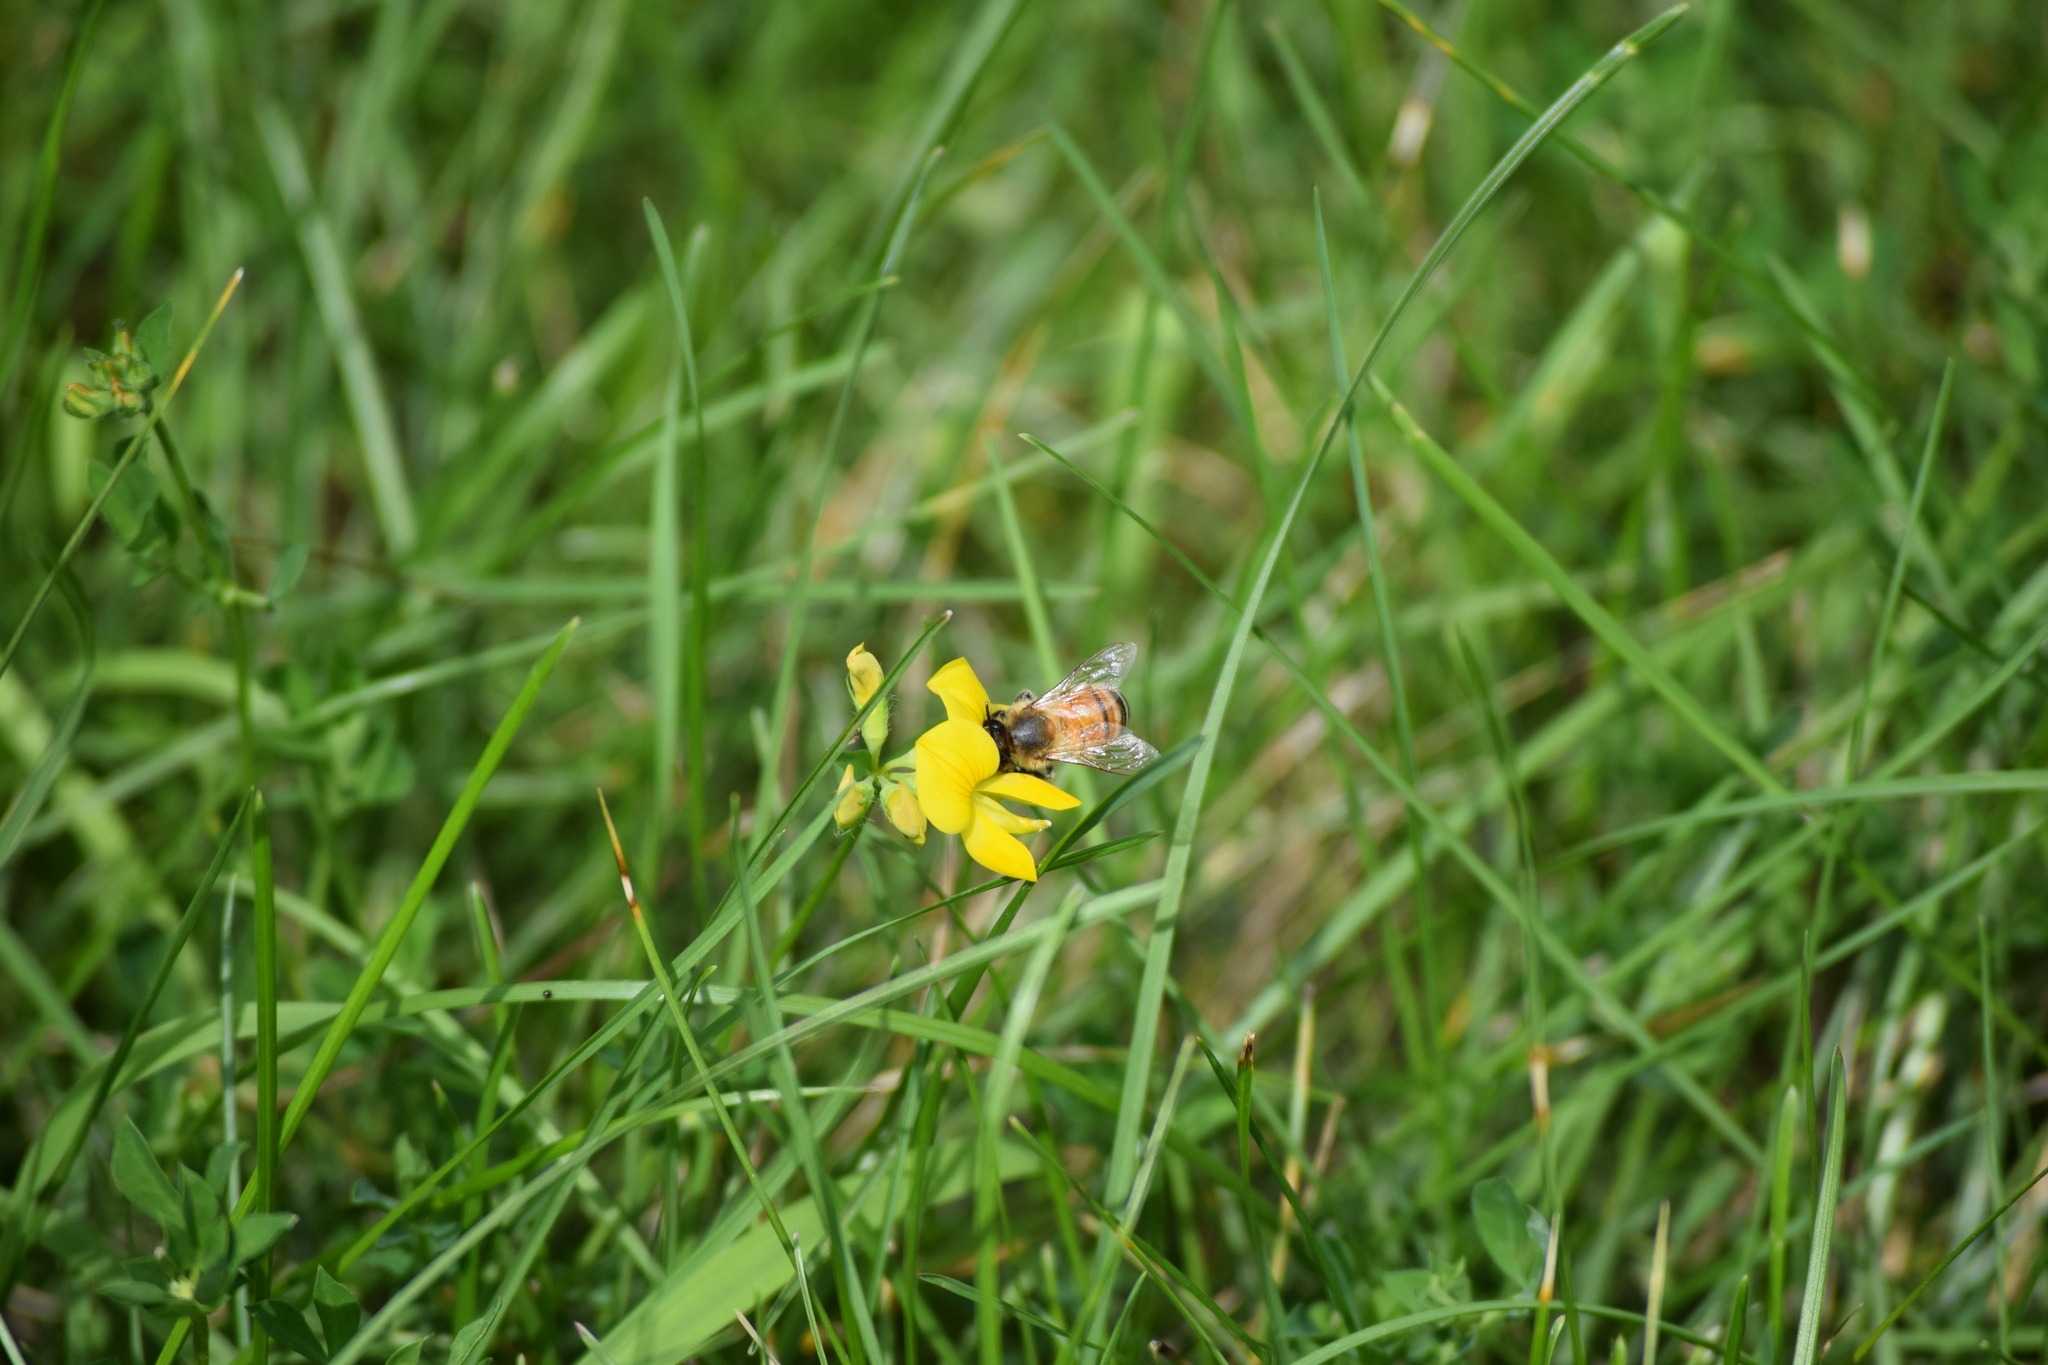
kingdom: Animalia
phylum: Arthropoda
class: Insecta
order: Hymenoptera
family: Apidae
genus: Apis
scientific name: Apis mellifera
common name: Honey bee
